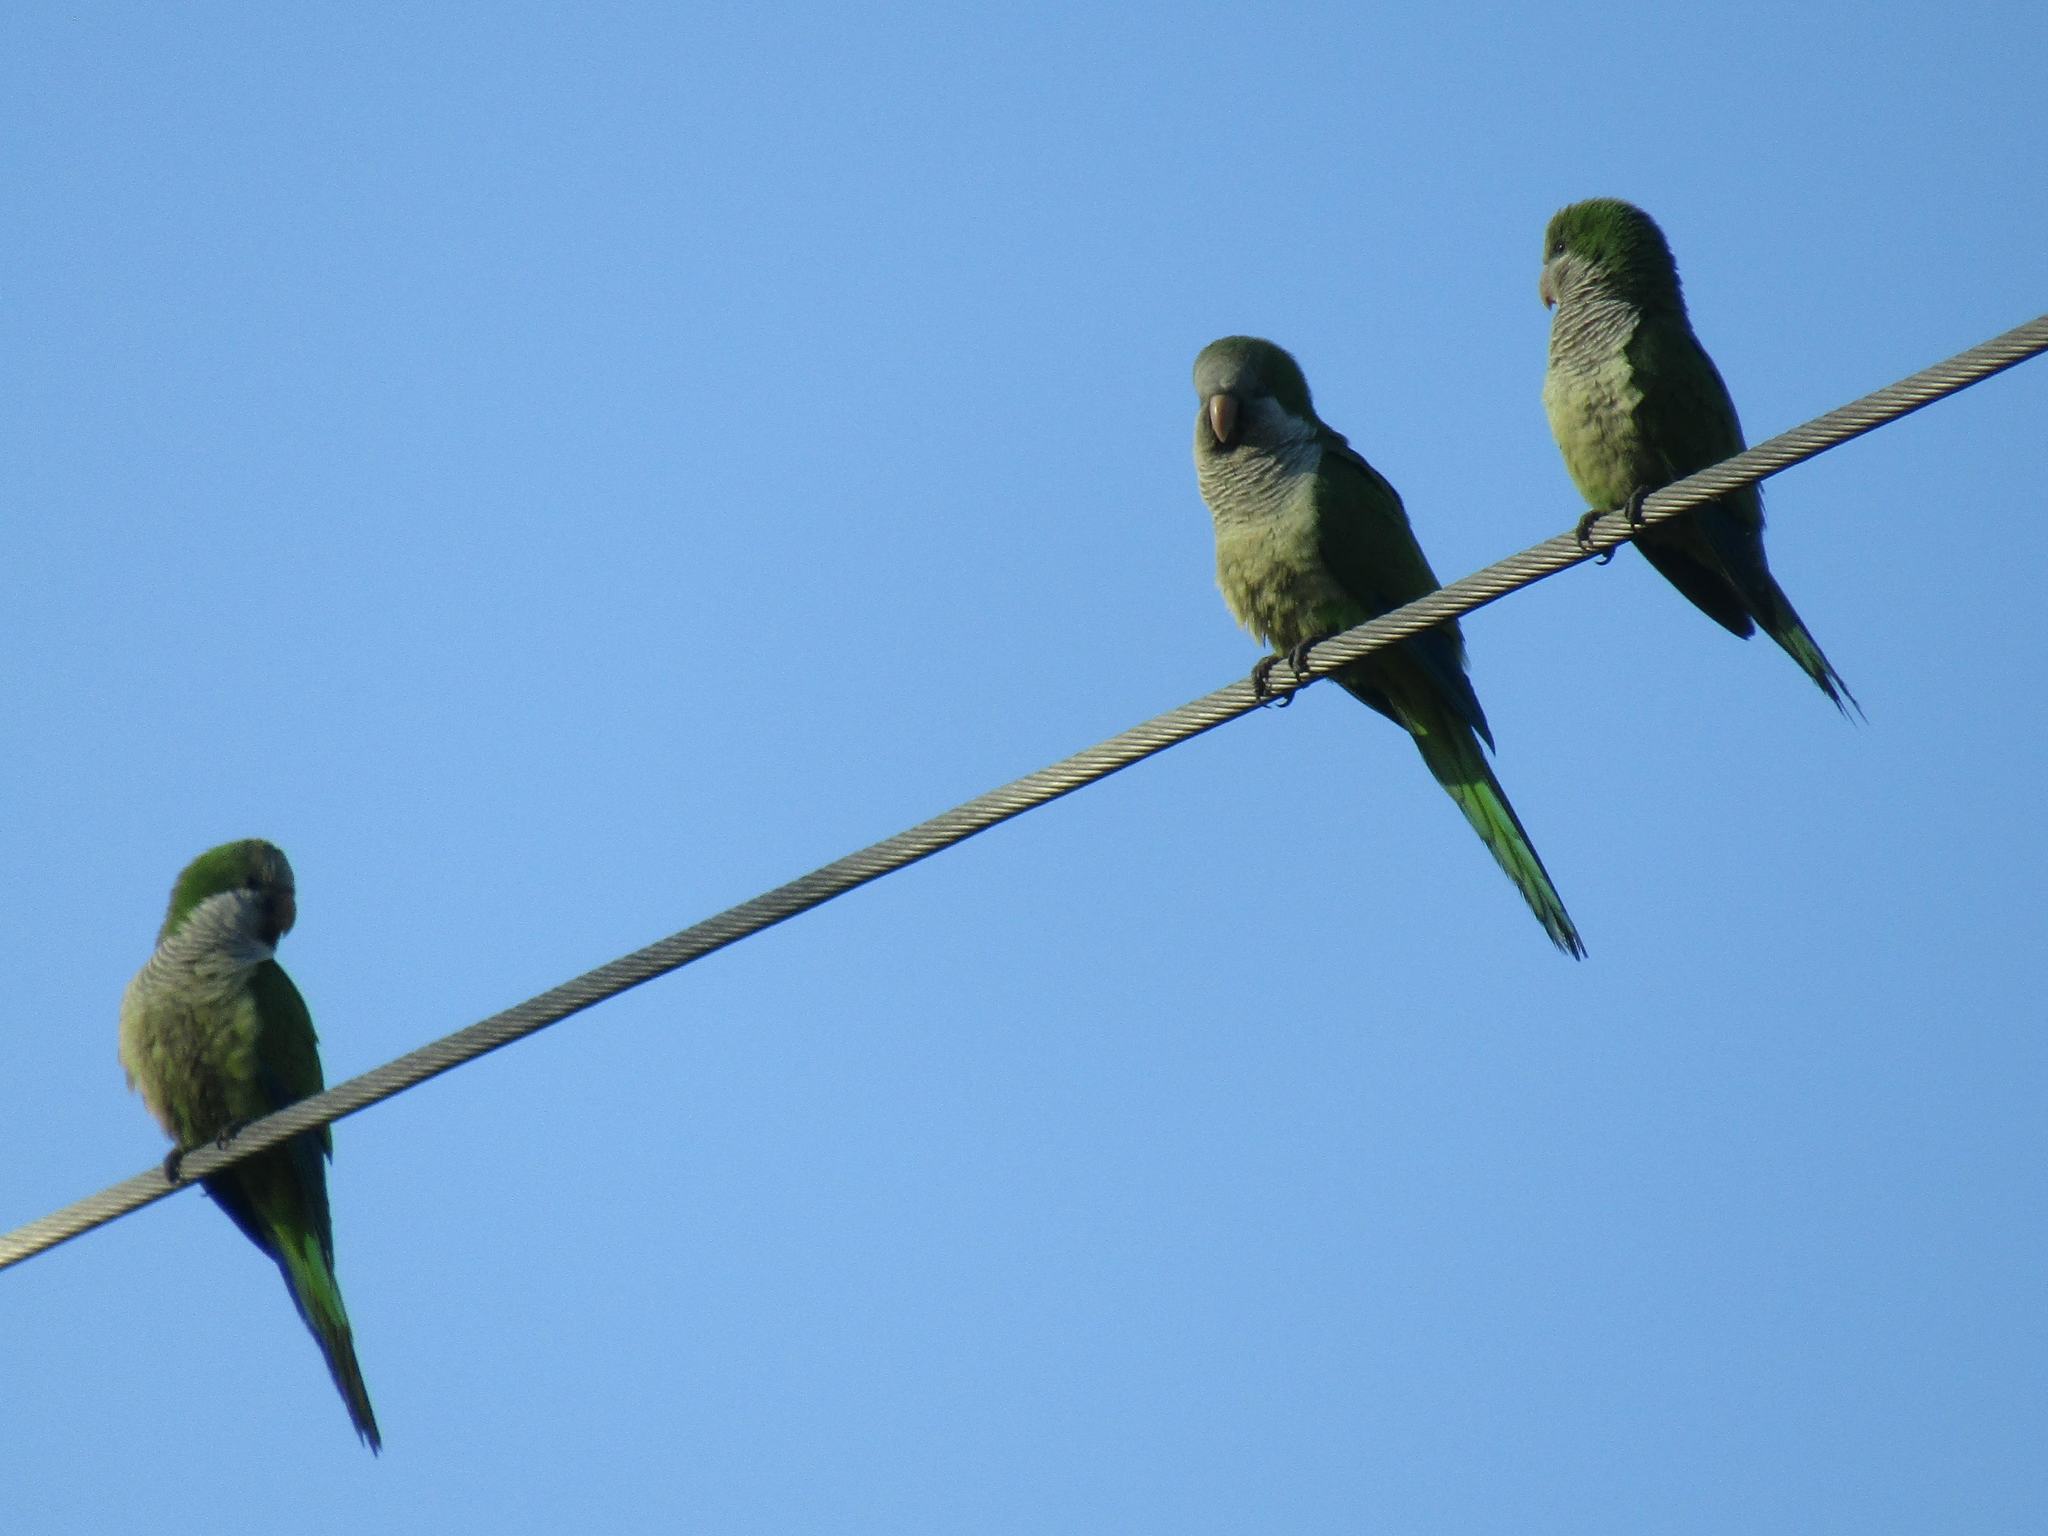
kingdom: Animalia
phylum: Chordata
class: Aves
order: Psittaciformes
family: Psittacidae
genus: Myiopsitta
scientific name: Myiopsitta monachus
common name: Monk parakeet
